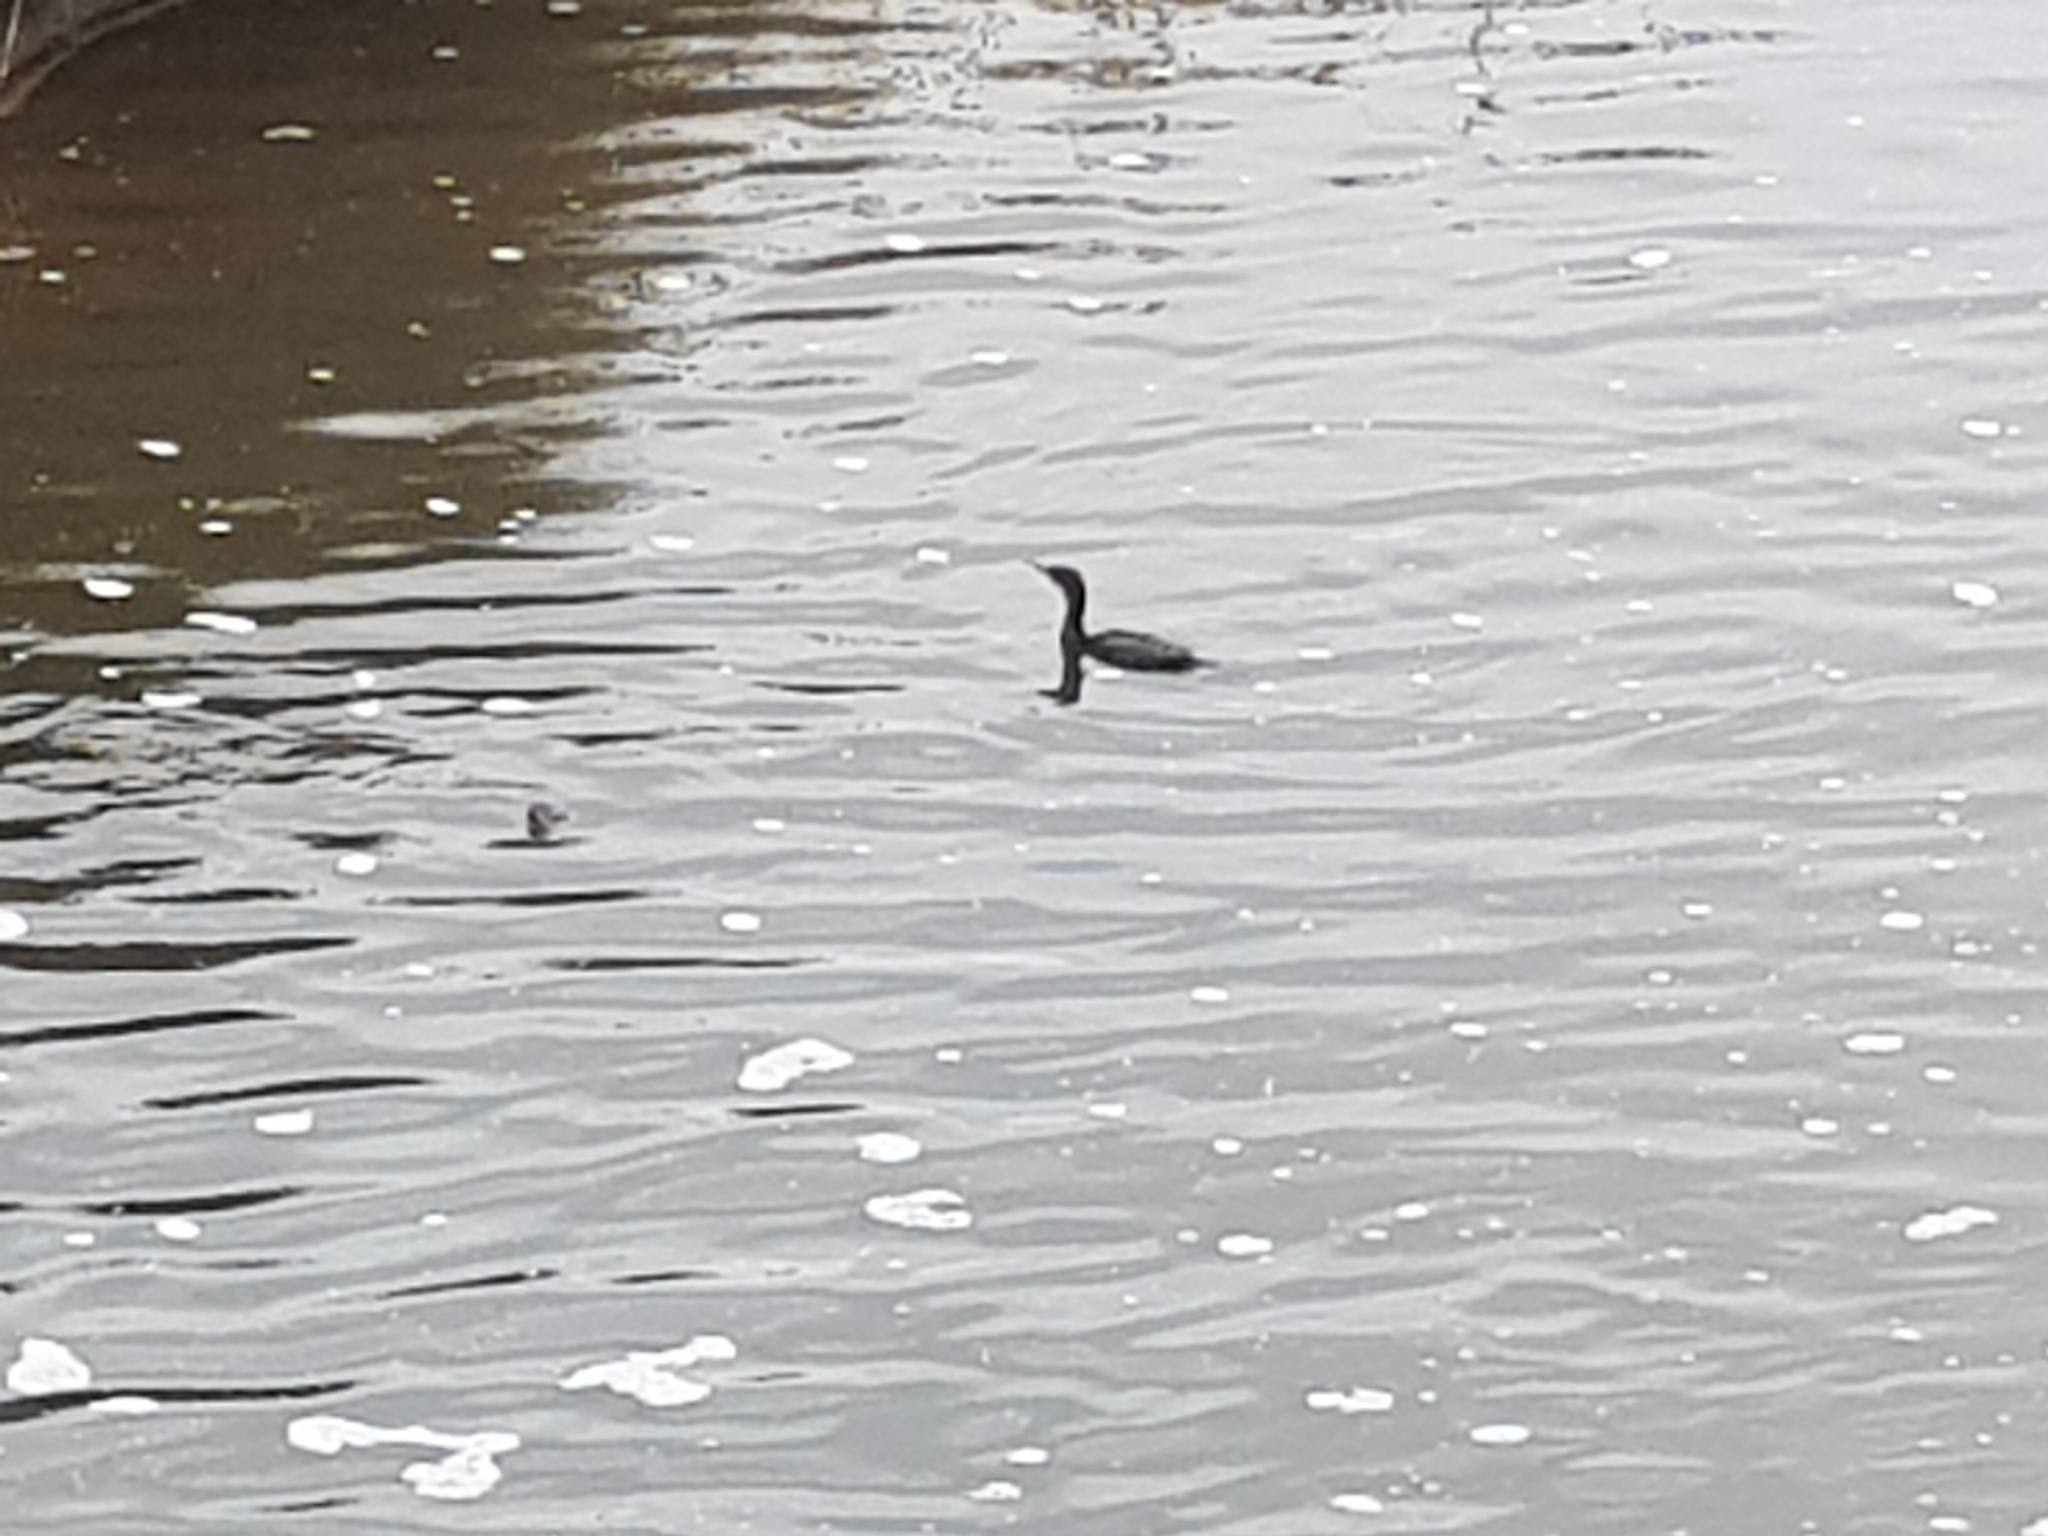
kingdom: Animalia
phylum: Chordata
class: Aves
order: Suliformes
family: Phalacrocoracidae
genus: Phalacrocorax
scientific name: Phalacrocorax sulcirostris
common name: Little black cormorant
